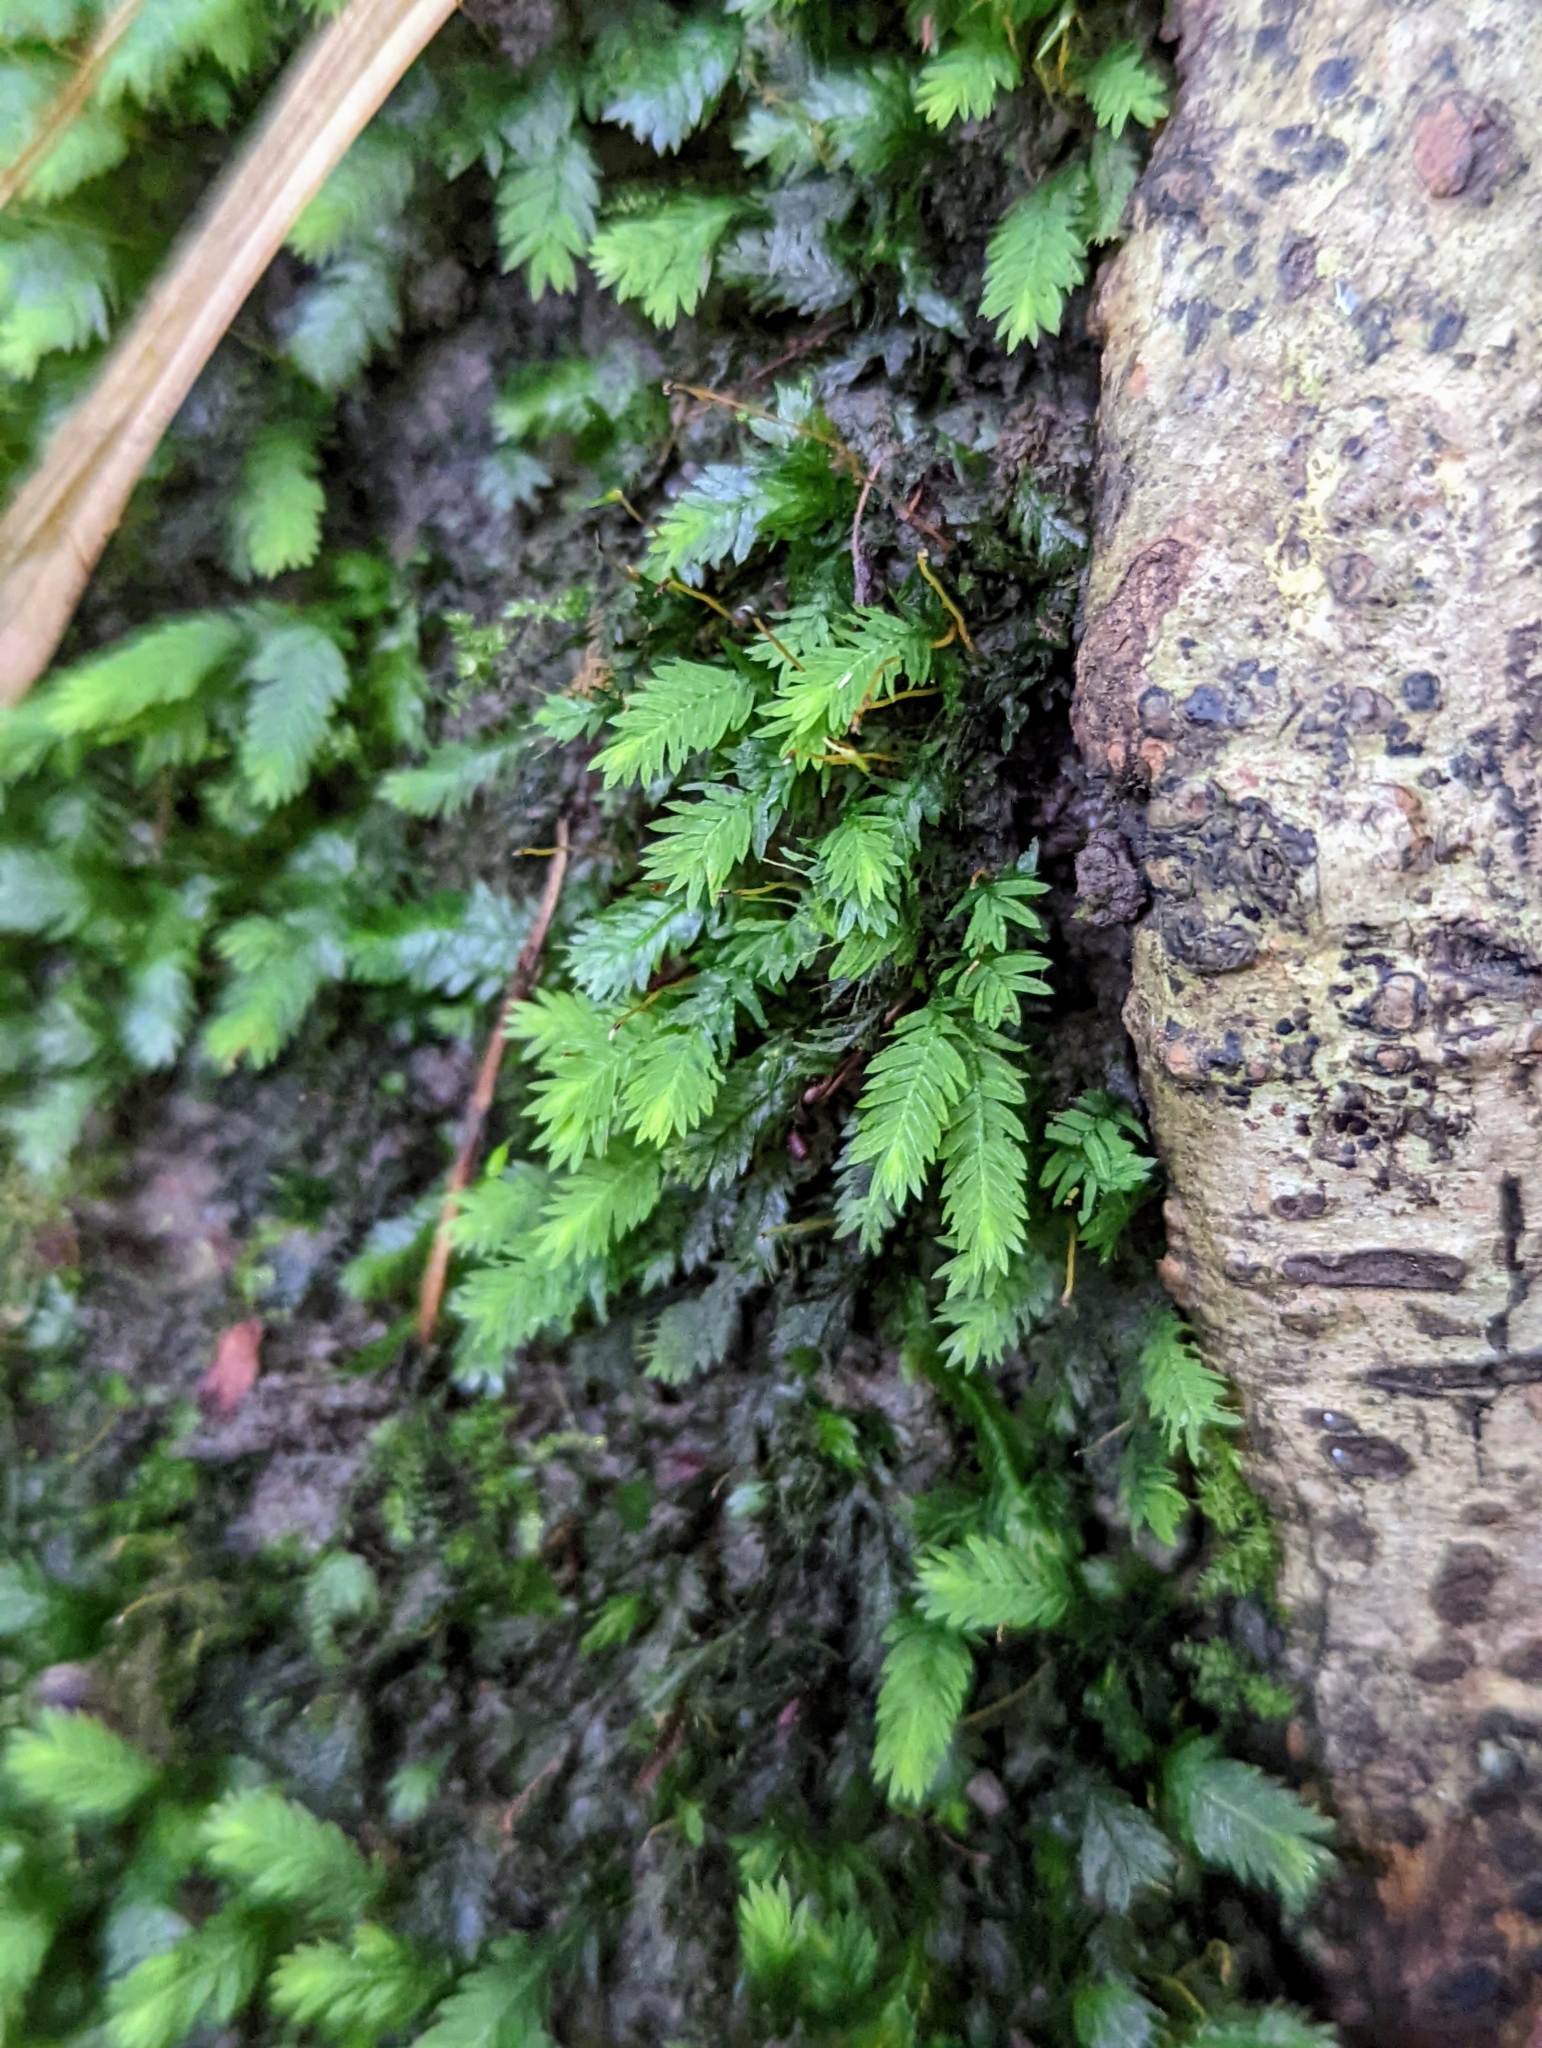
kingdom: Plantae
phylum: Bryophyta
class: Bryopsida
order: Dicranales
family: Fissidentaceae
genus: Fissidens
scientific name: Fissidens taxifolius
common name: Yew-leaved pocket moss
